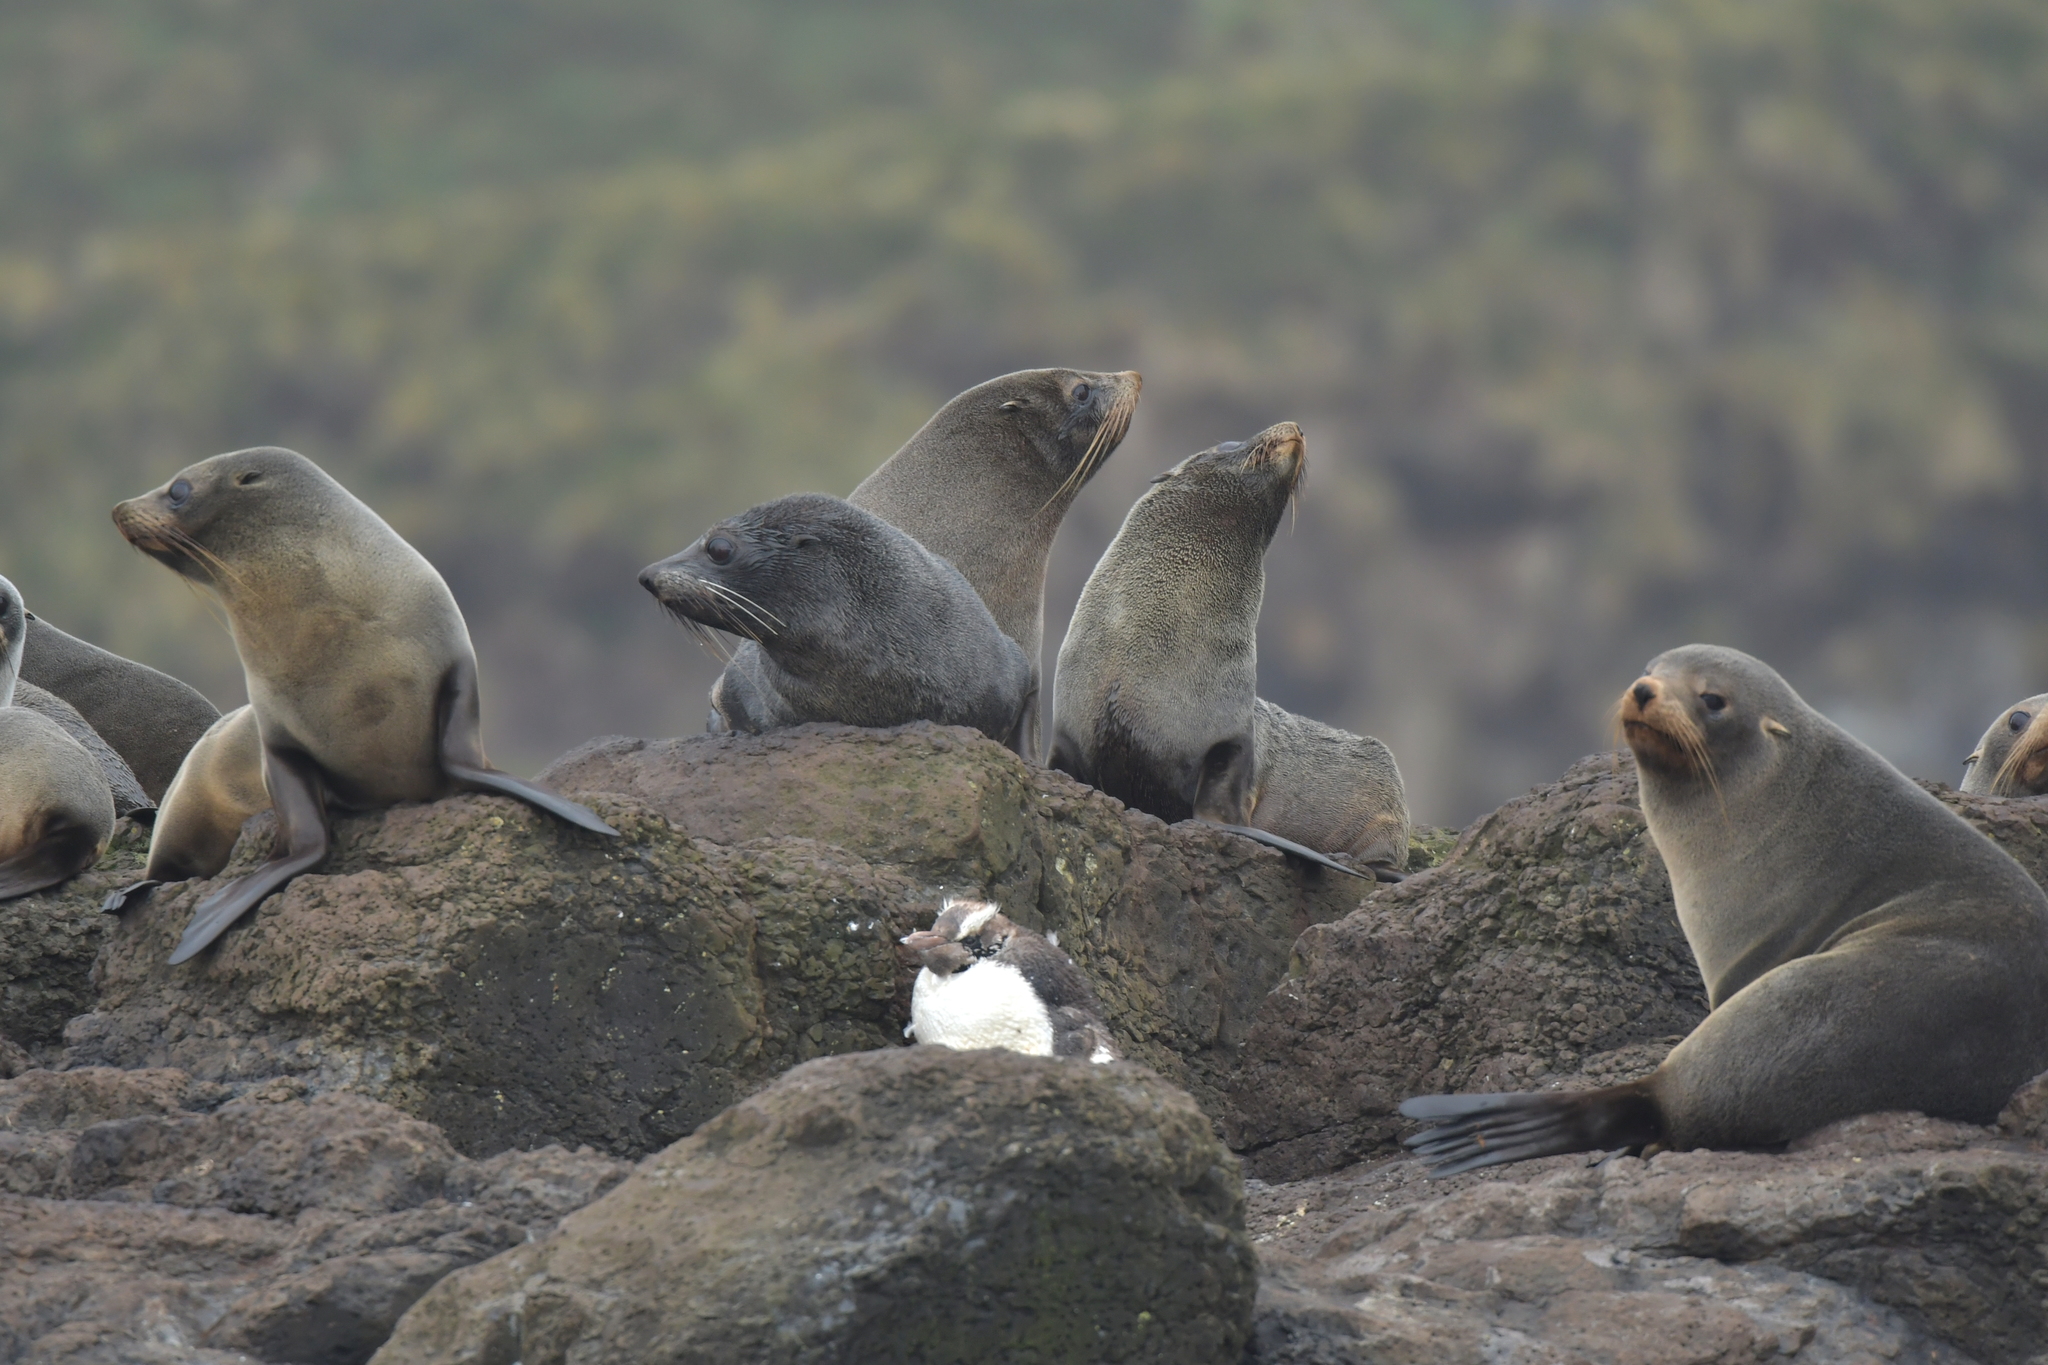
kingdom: Animalia
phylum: Chordata
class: Mammalia
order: Carnivora
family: Otariidae
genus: Arctocephalus
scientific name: Arctocephalus forsteri
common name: New zealand fur seal
